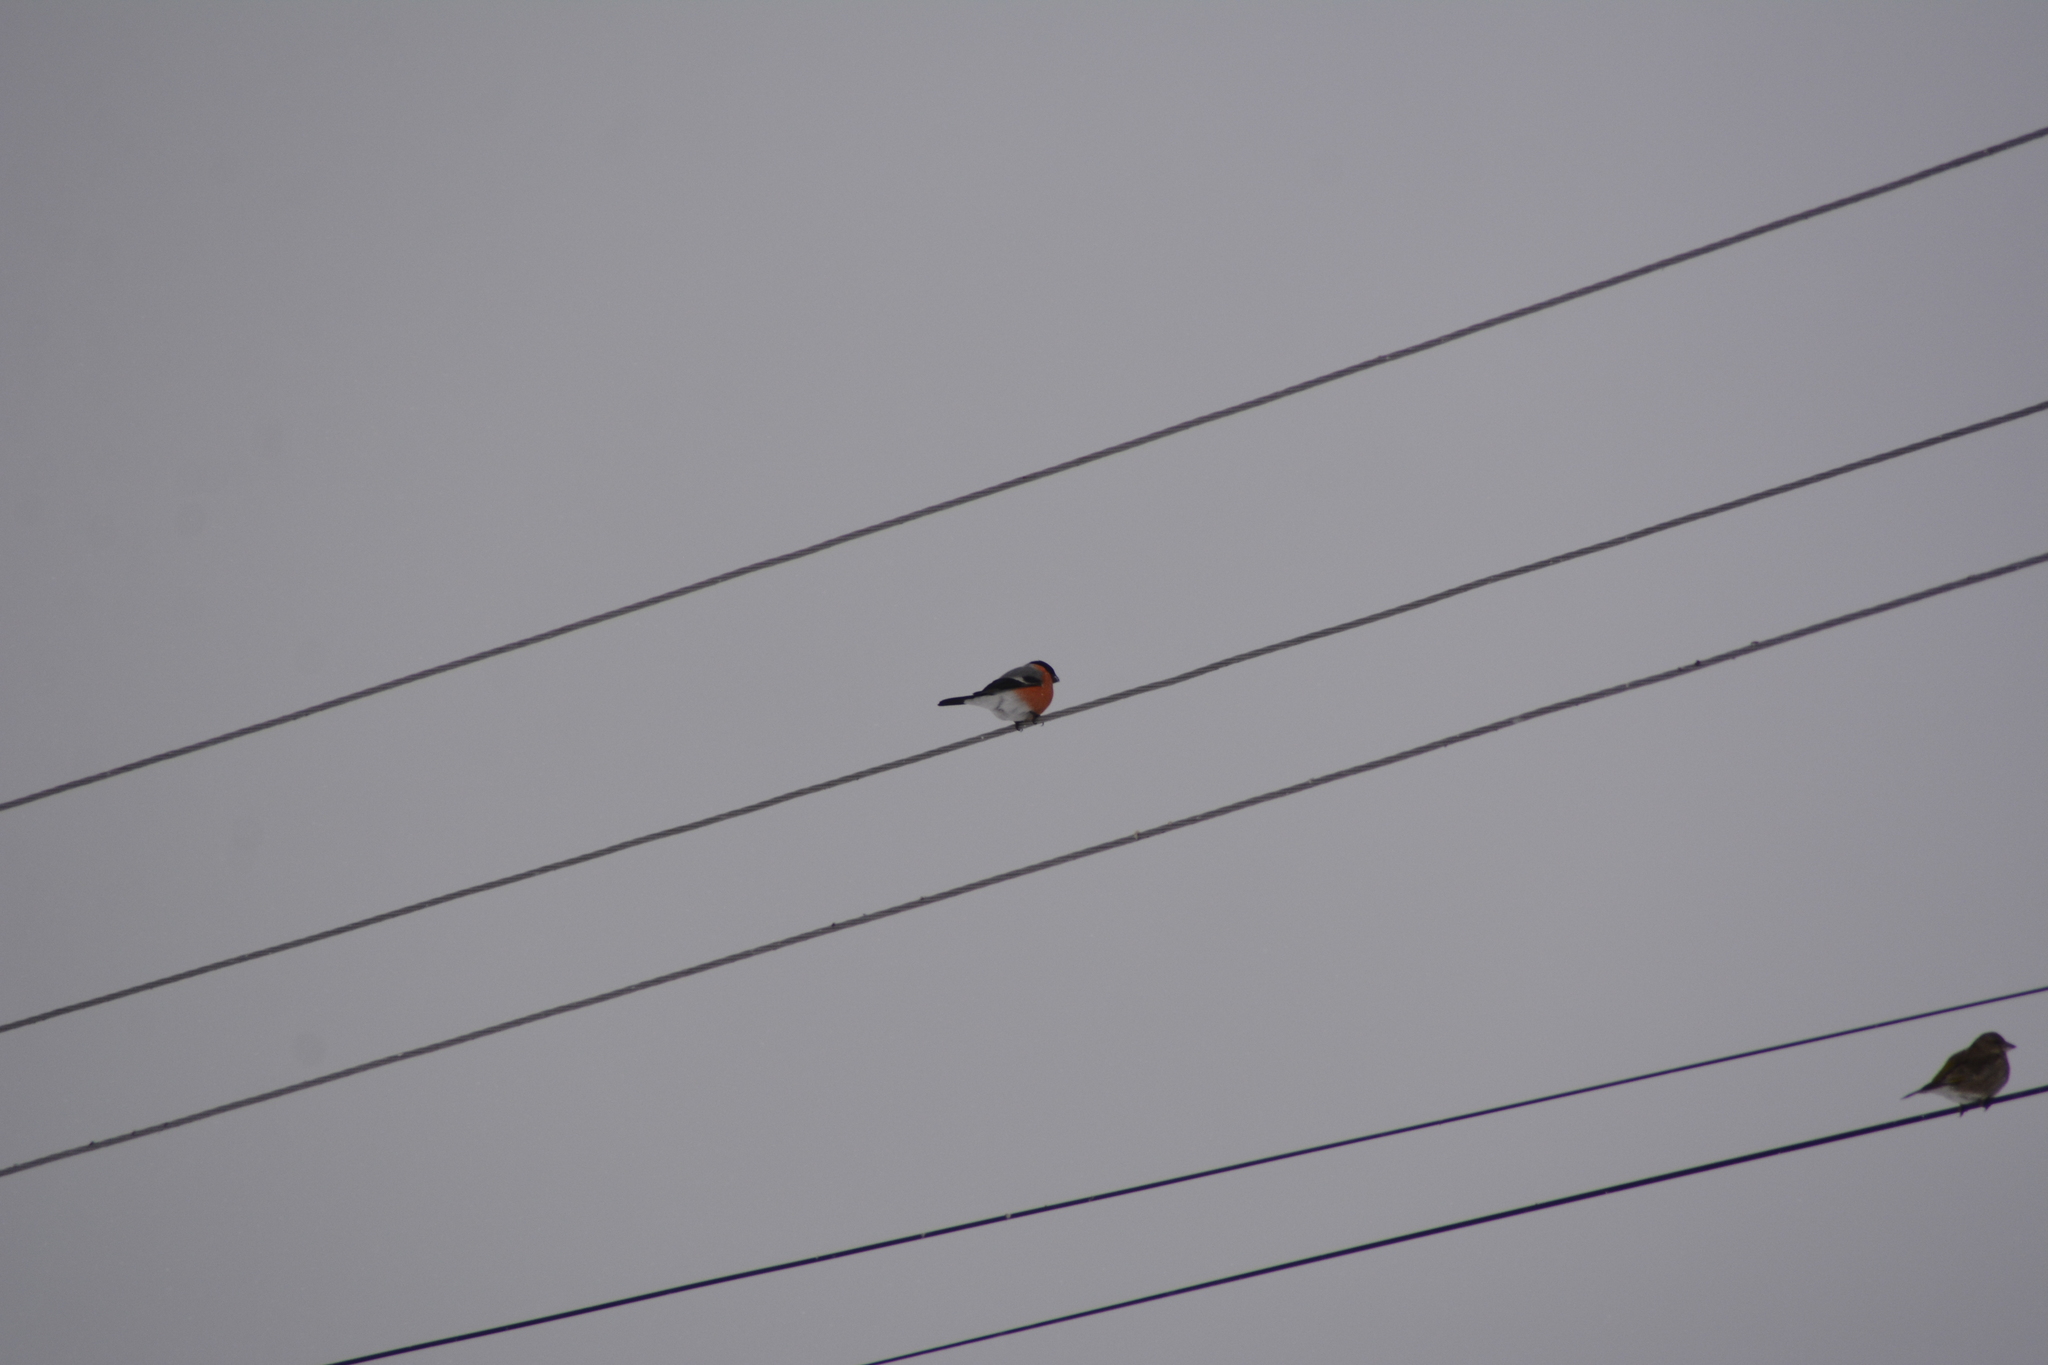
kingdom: Animalia
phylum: Chordata
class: Aves
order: Passeriformes
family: Fringillidae
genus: Pyrrhula
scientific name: Pyrrhula pyrrhula
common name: Eurasian bullfinch
